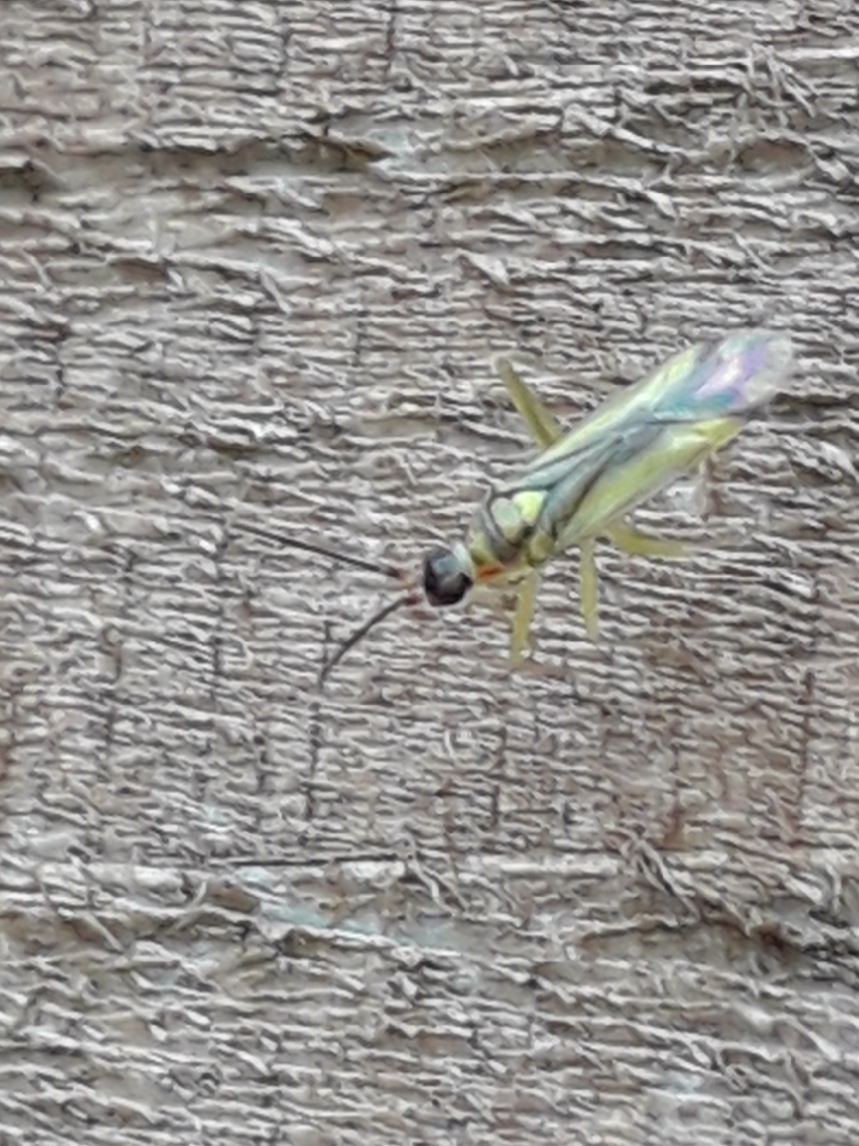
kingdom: Animalia
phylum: Arthropoda
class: Insecta
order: Hemiptera
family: Miridae
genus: Campyloneura
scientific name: Campyloneura virgula
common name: Predatory bug
